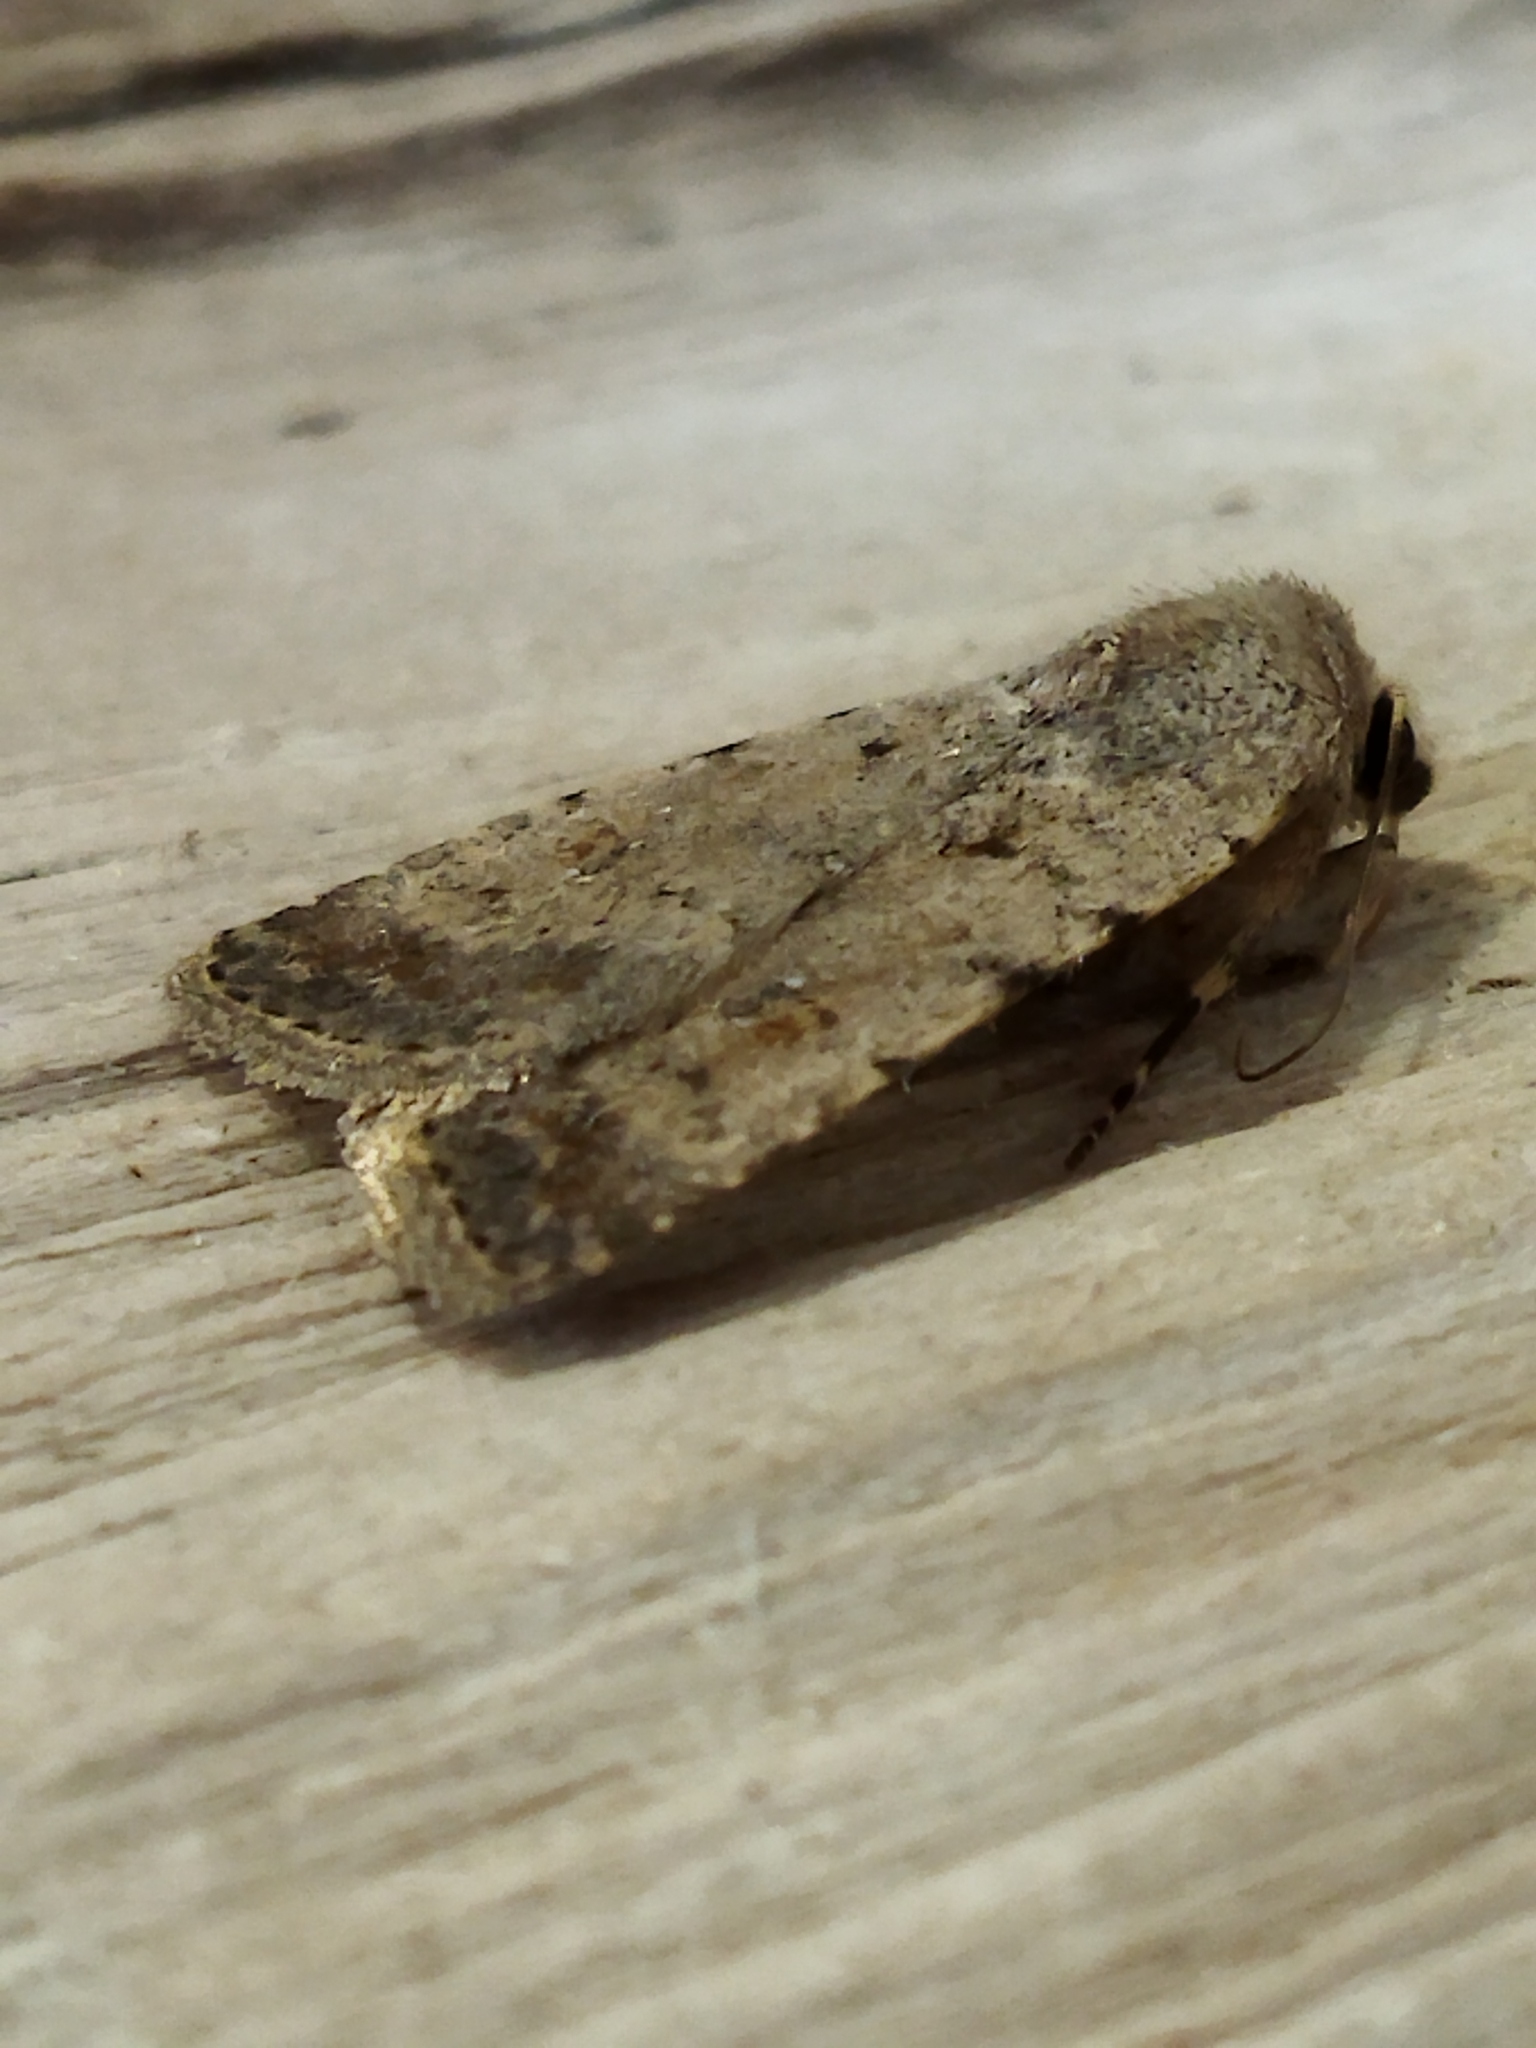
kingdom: Animalia
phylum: Arthropoda
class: Insecta
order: Lepidoptera
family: Noctuidae
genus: Caradrina
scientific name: Caradrina clavipalpis
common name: Pale mottled willow
